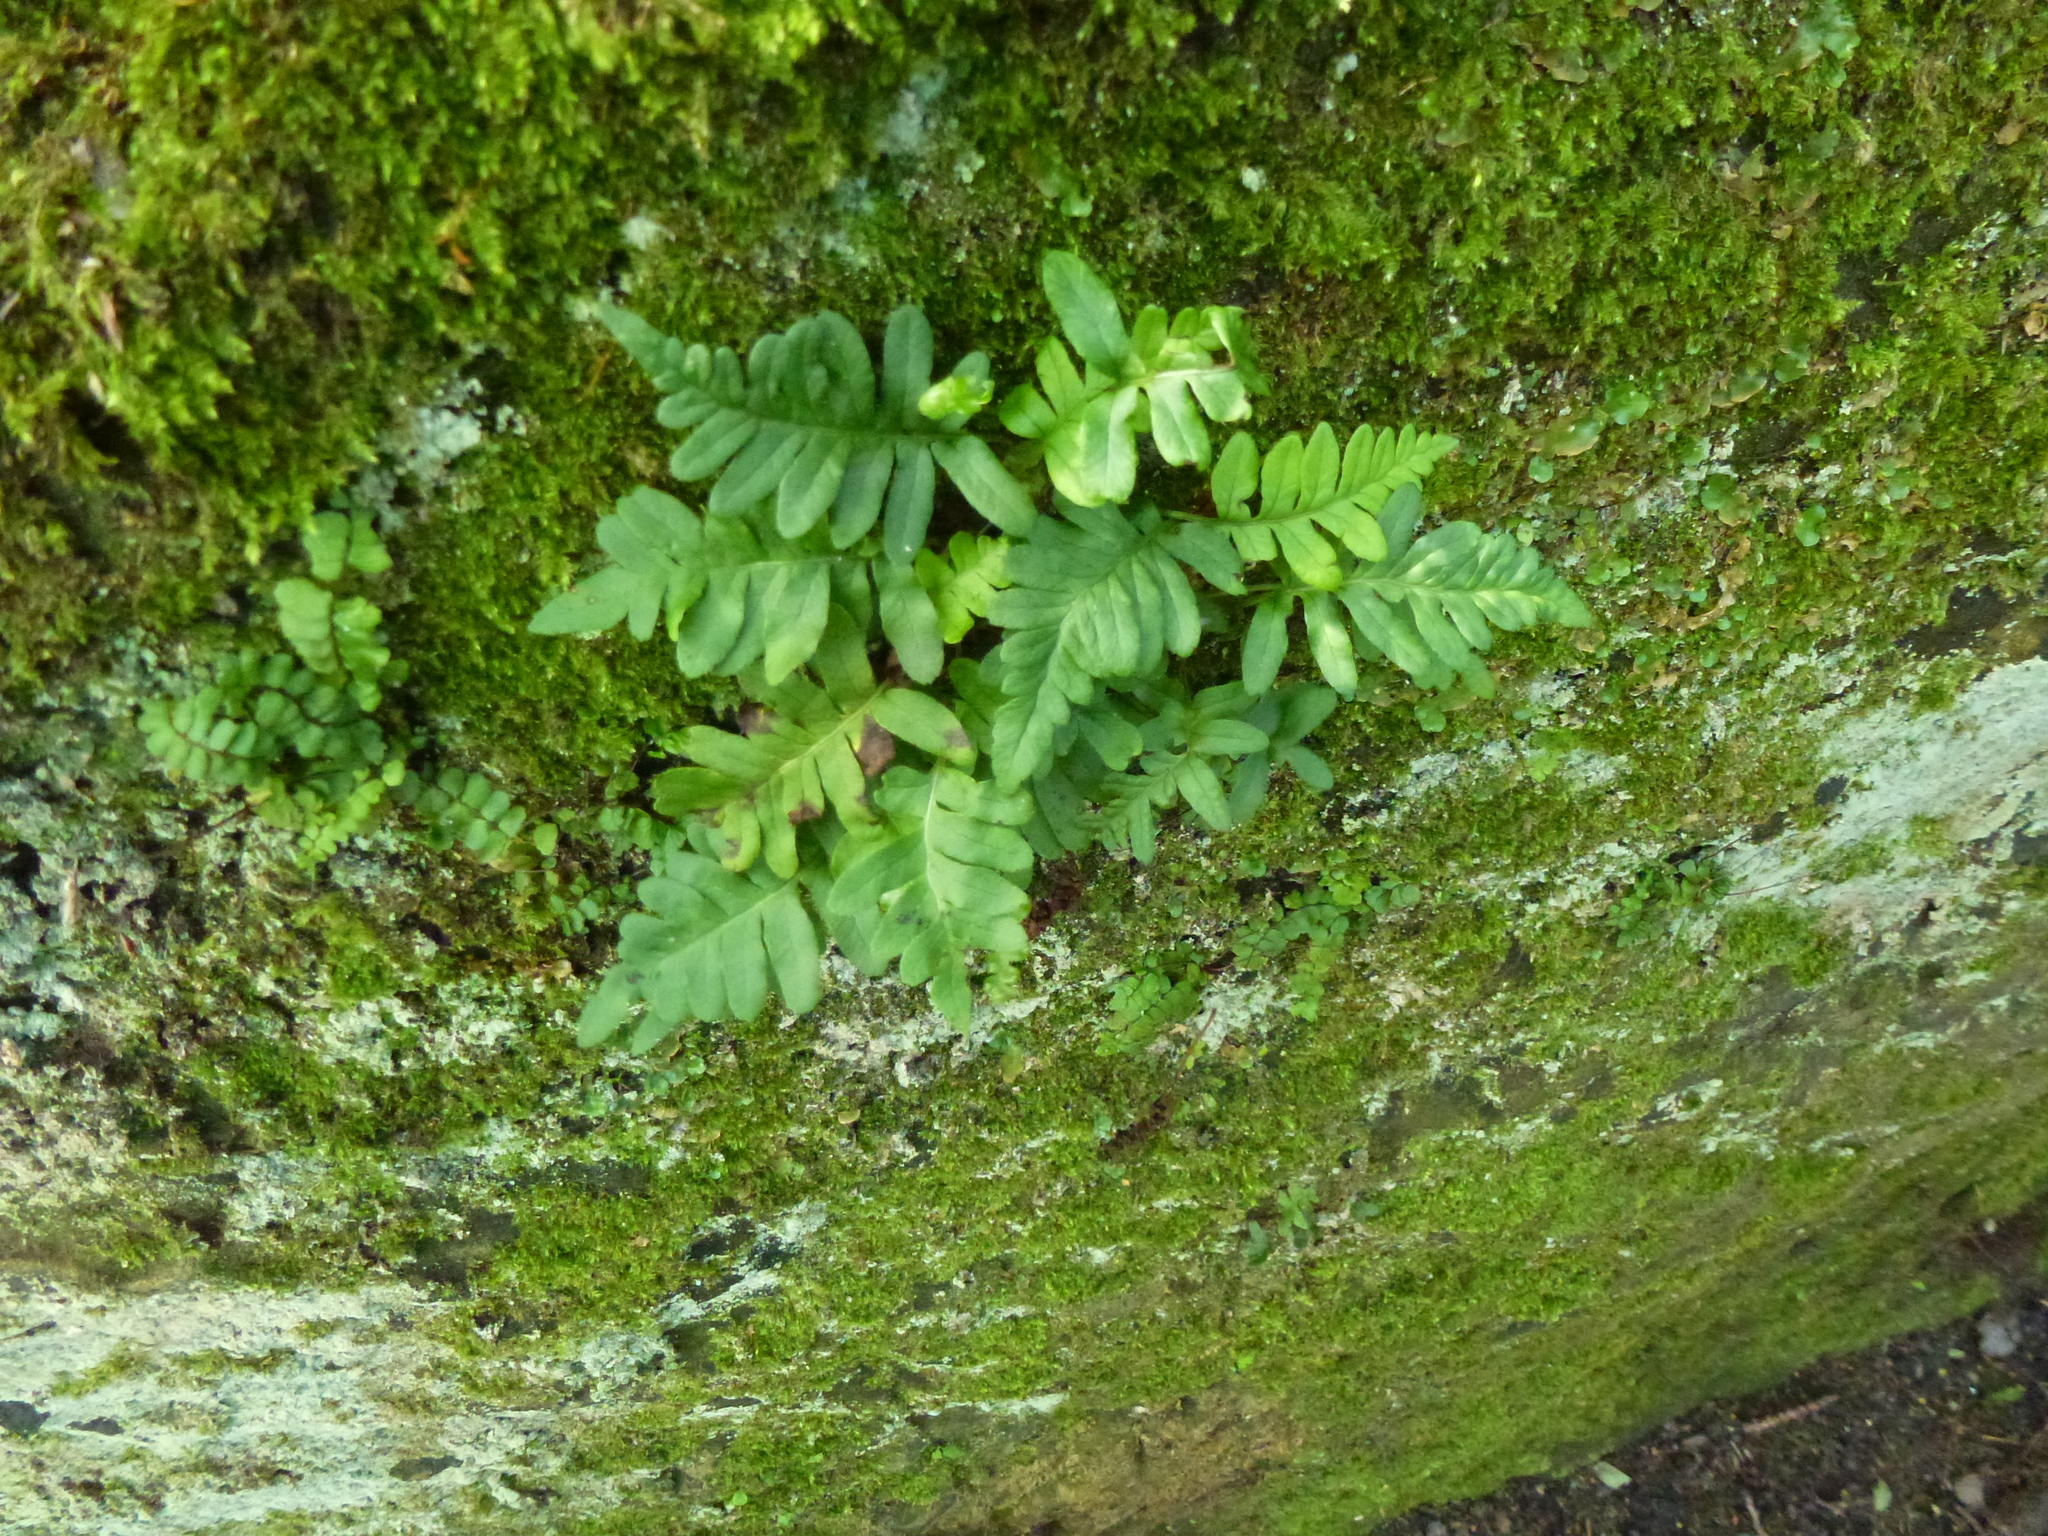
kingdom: Plantae
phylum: Tracheophyta
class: Polypodiopsida
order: Polypodiales
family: Polypodiaceae
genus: Polypodium
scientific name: Polypodium vulgare
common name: Common polypody
